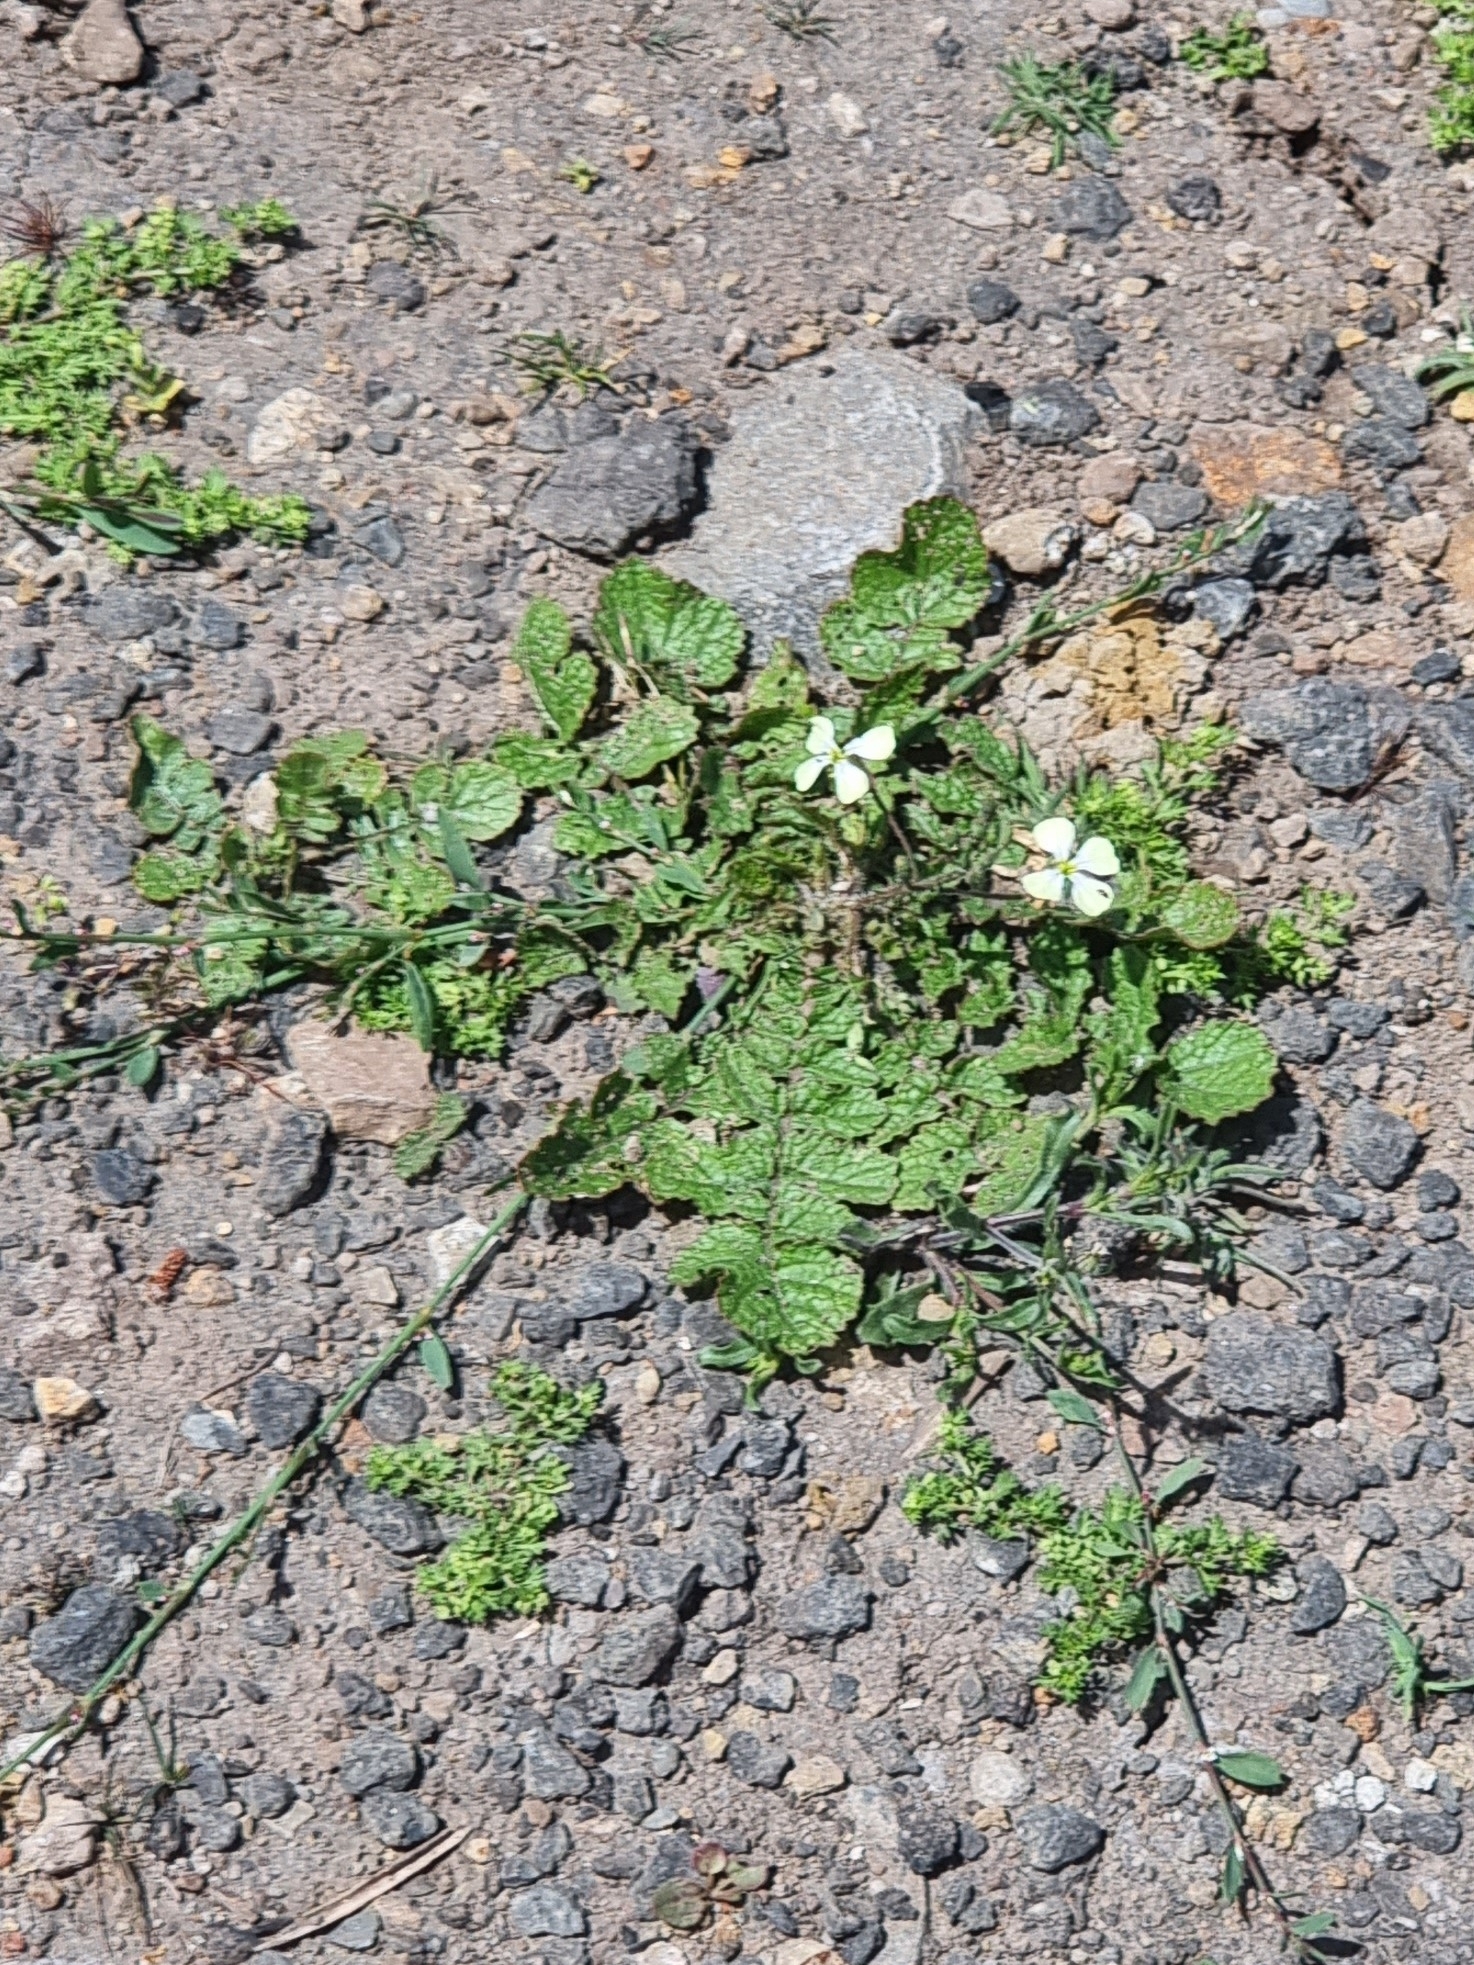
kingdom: Plantae
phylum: Tracheophyta
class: Magnoliopsida
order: Brassicales
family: Brassicaceae
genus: Raphanus
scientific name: Raphanus raphanistrum
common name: Wild radish
